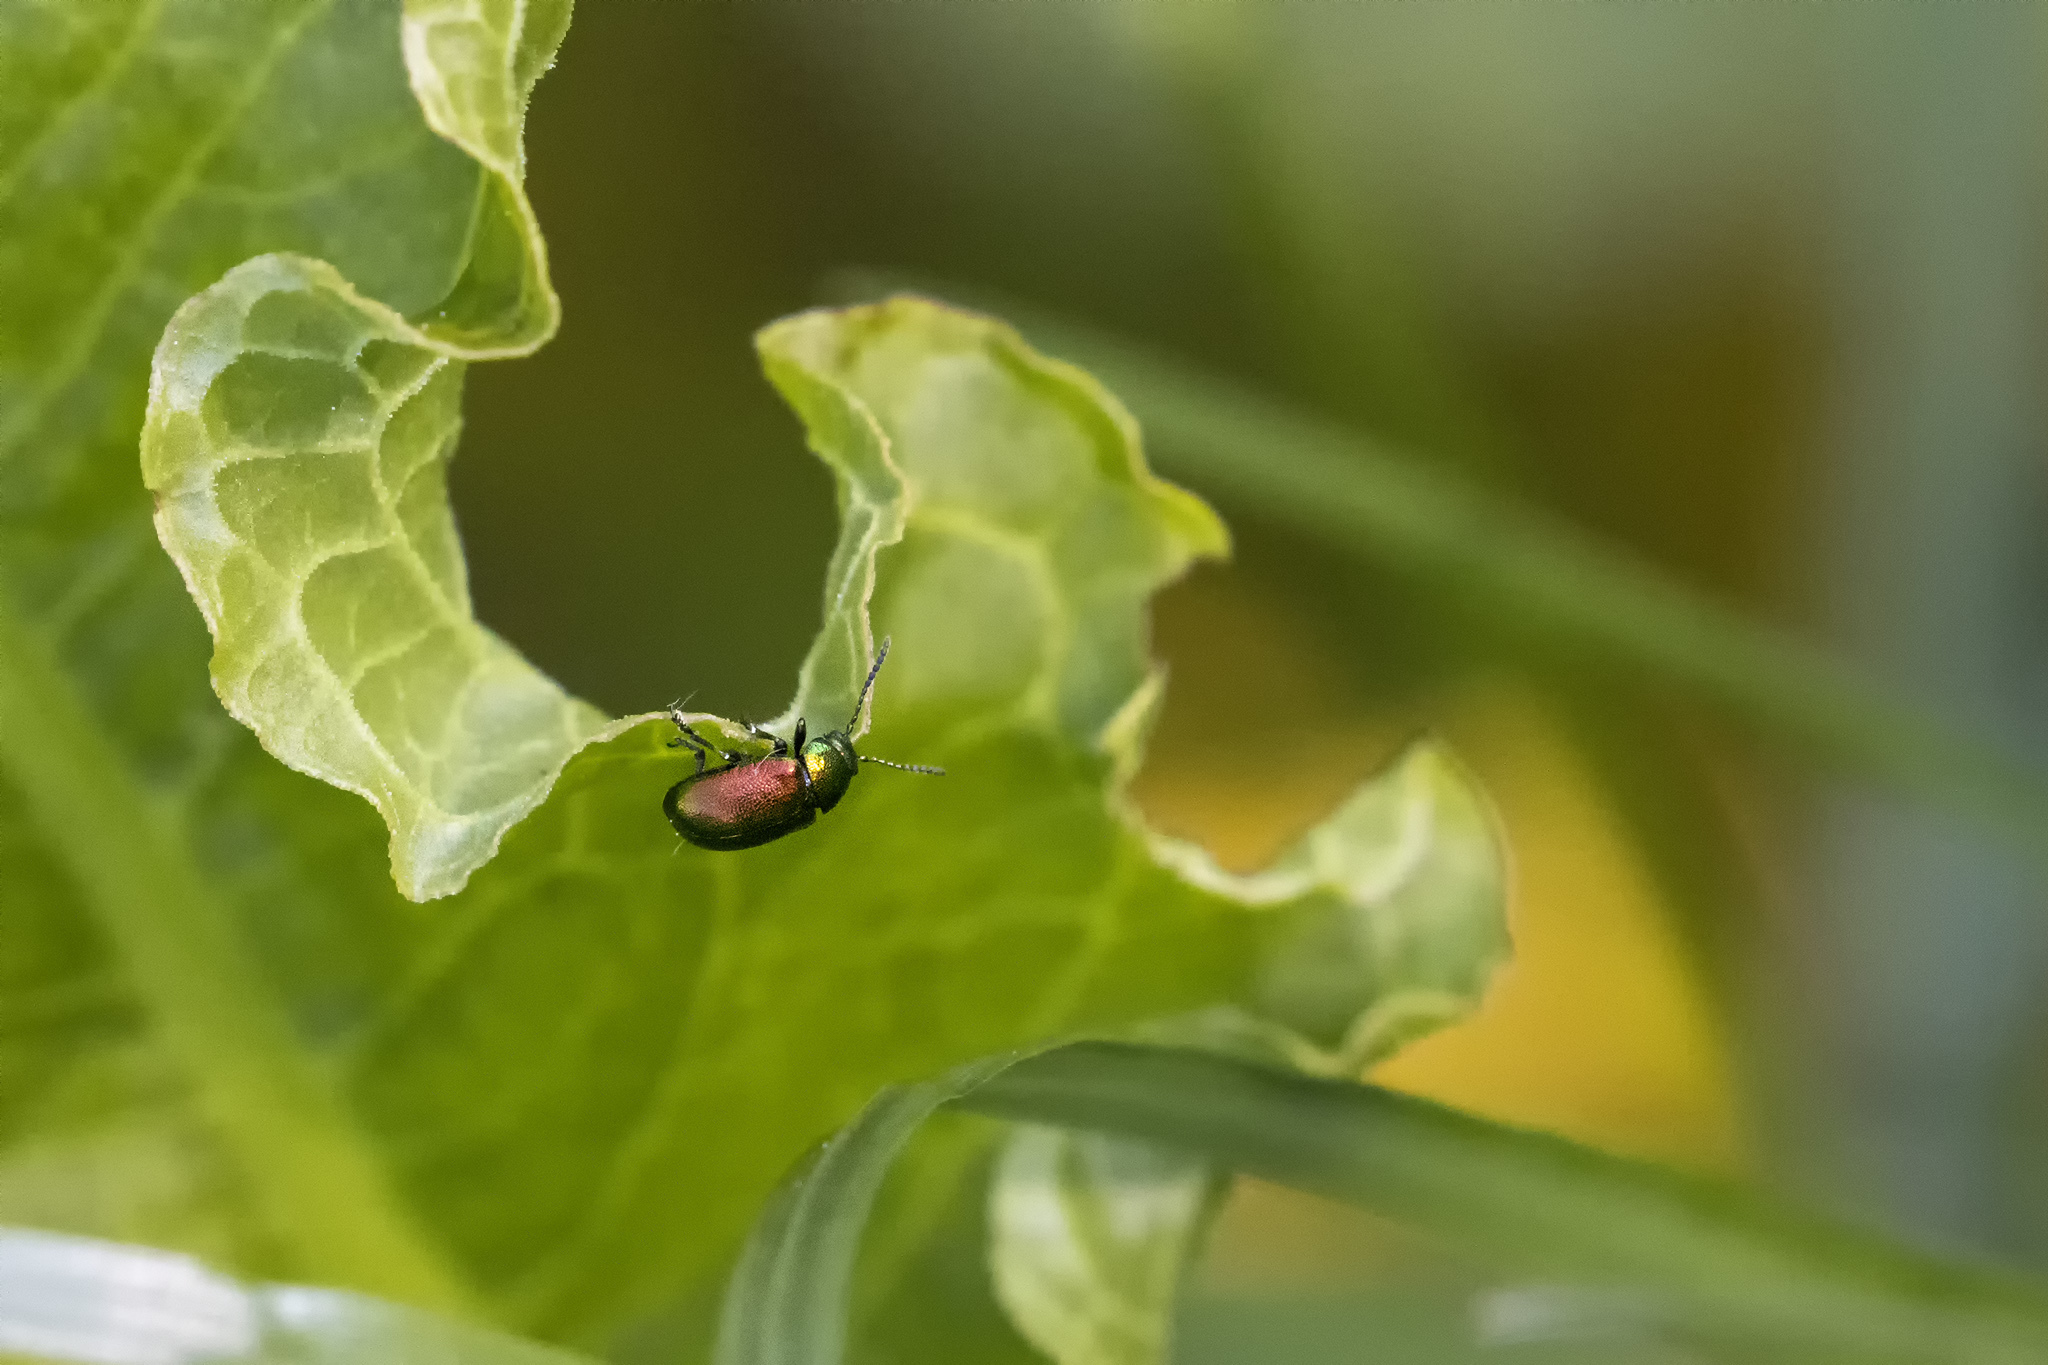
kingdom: Animalia
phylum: Arthropoda
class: Insecta
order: Coleoptera
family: Chrysomelidae
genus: Gastrophysa
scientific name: Gastrophysa viridula
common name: Green dock beetle
